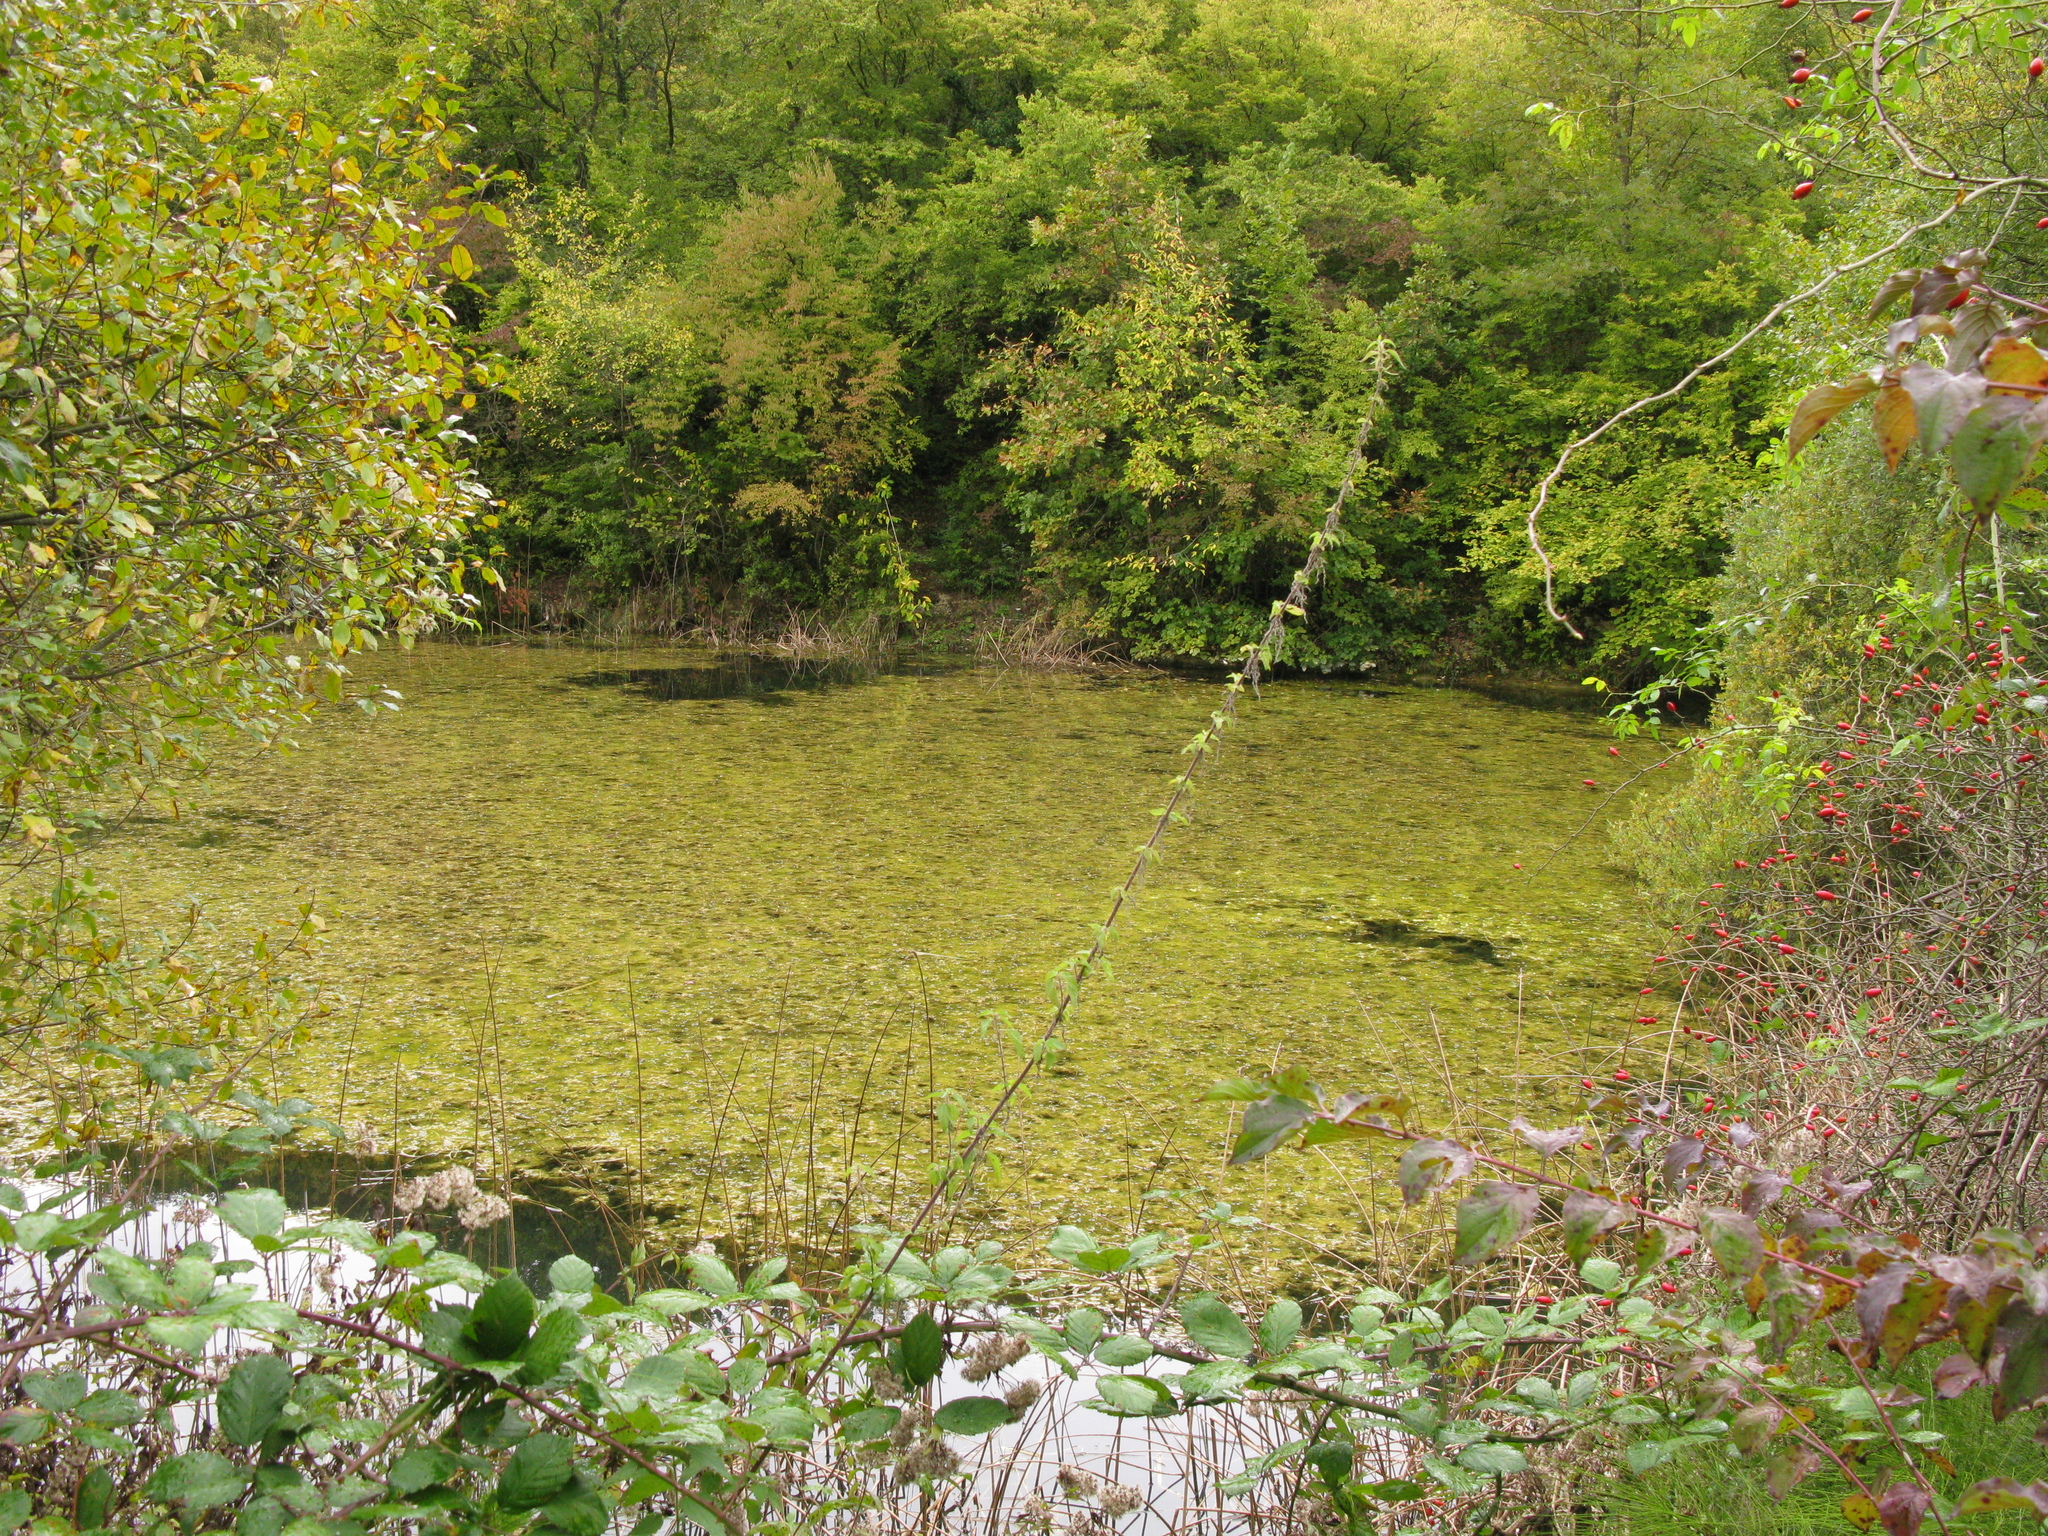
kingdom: Plantae
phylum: Tracheophyta
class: Magnoliopsida
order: Rosales
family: Urticaceae
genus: Urtica
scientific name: Urtica dioica
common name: Common nettle
